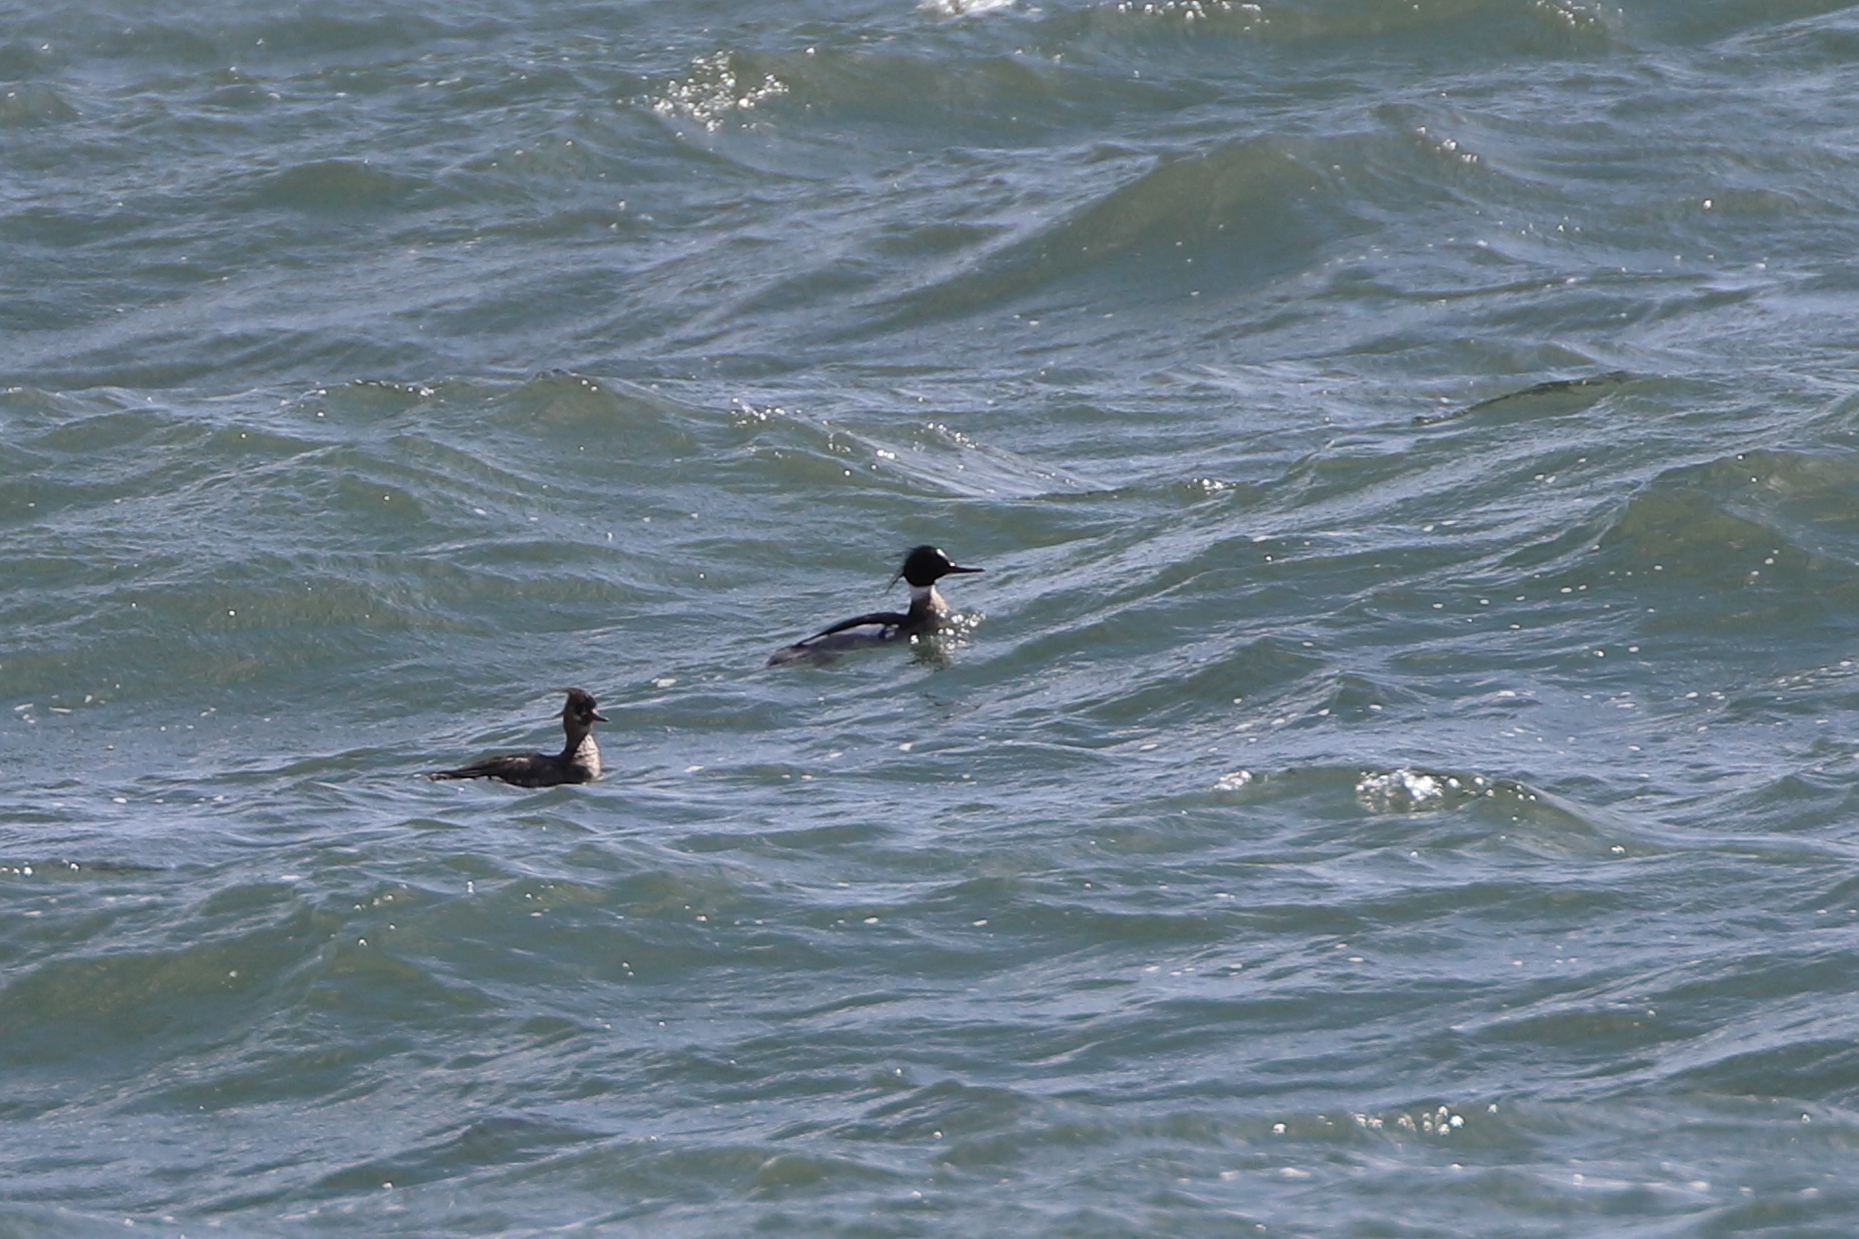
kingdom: Animalia
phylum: Chordata
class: Aves
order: Anseriformes
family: Anatidae
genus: Mergus
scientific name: Mergus serrator
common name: Red-breasted merganser
